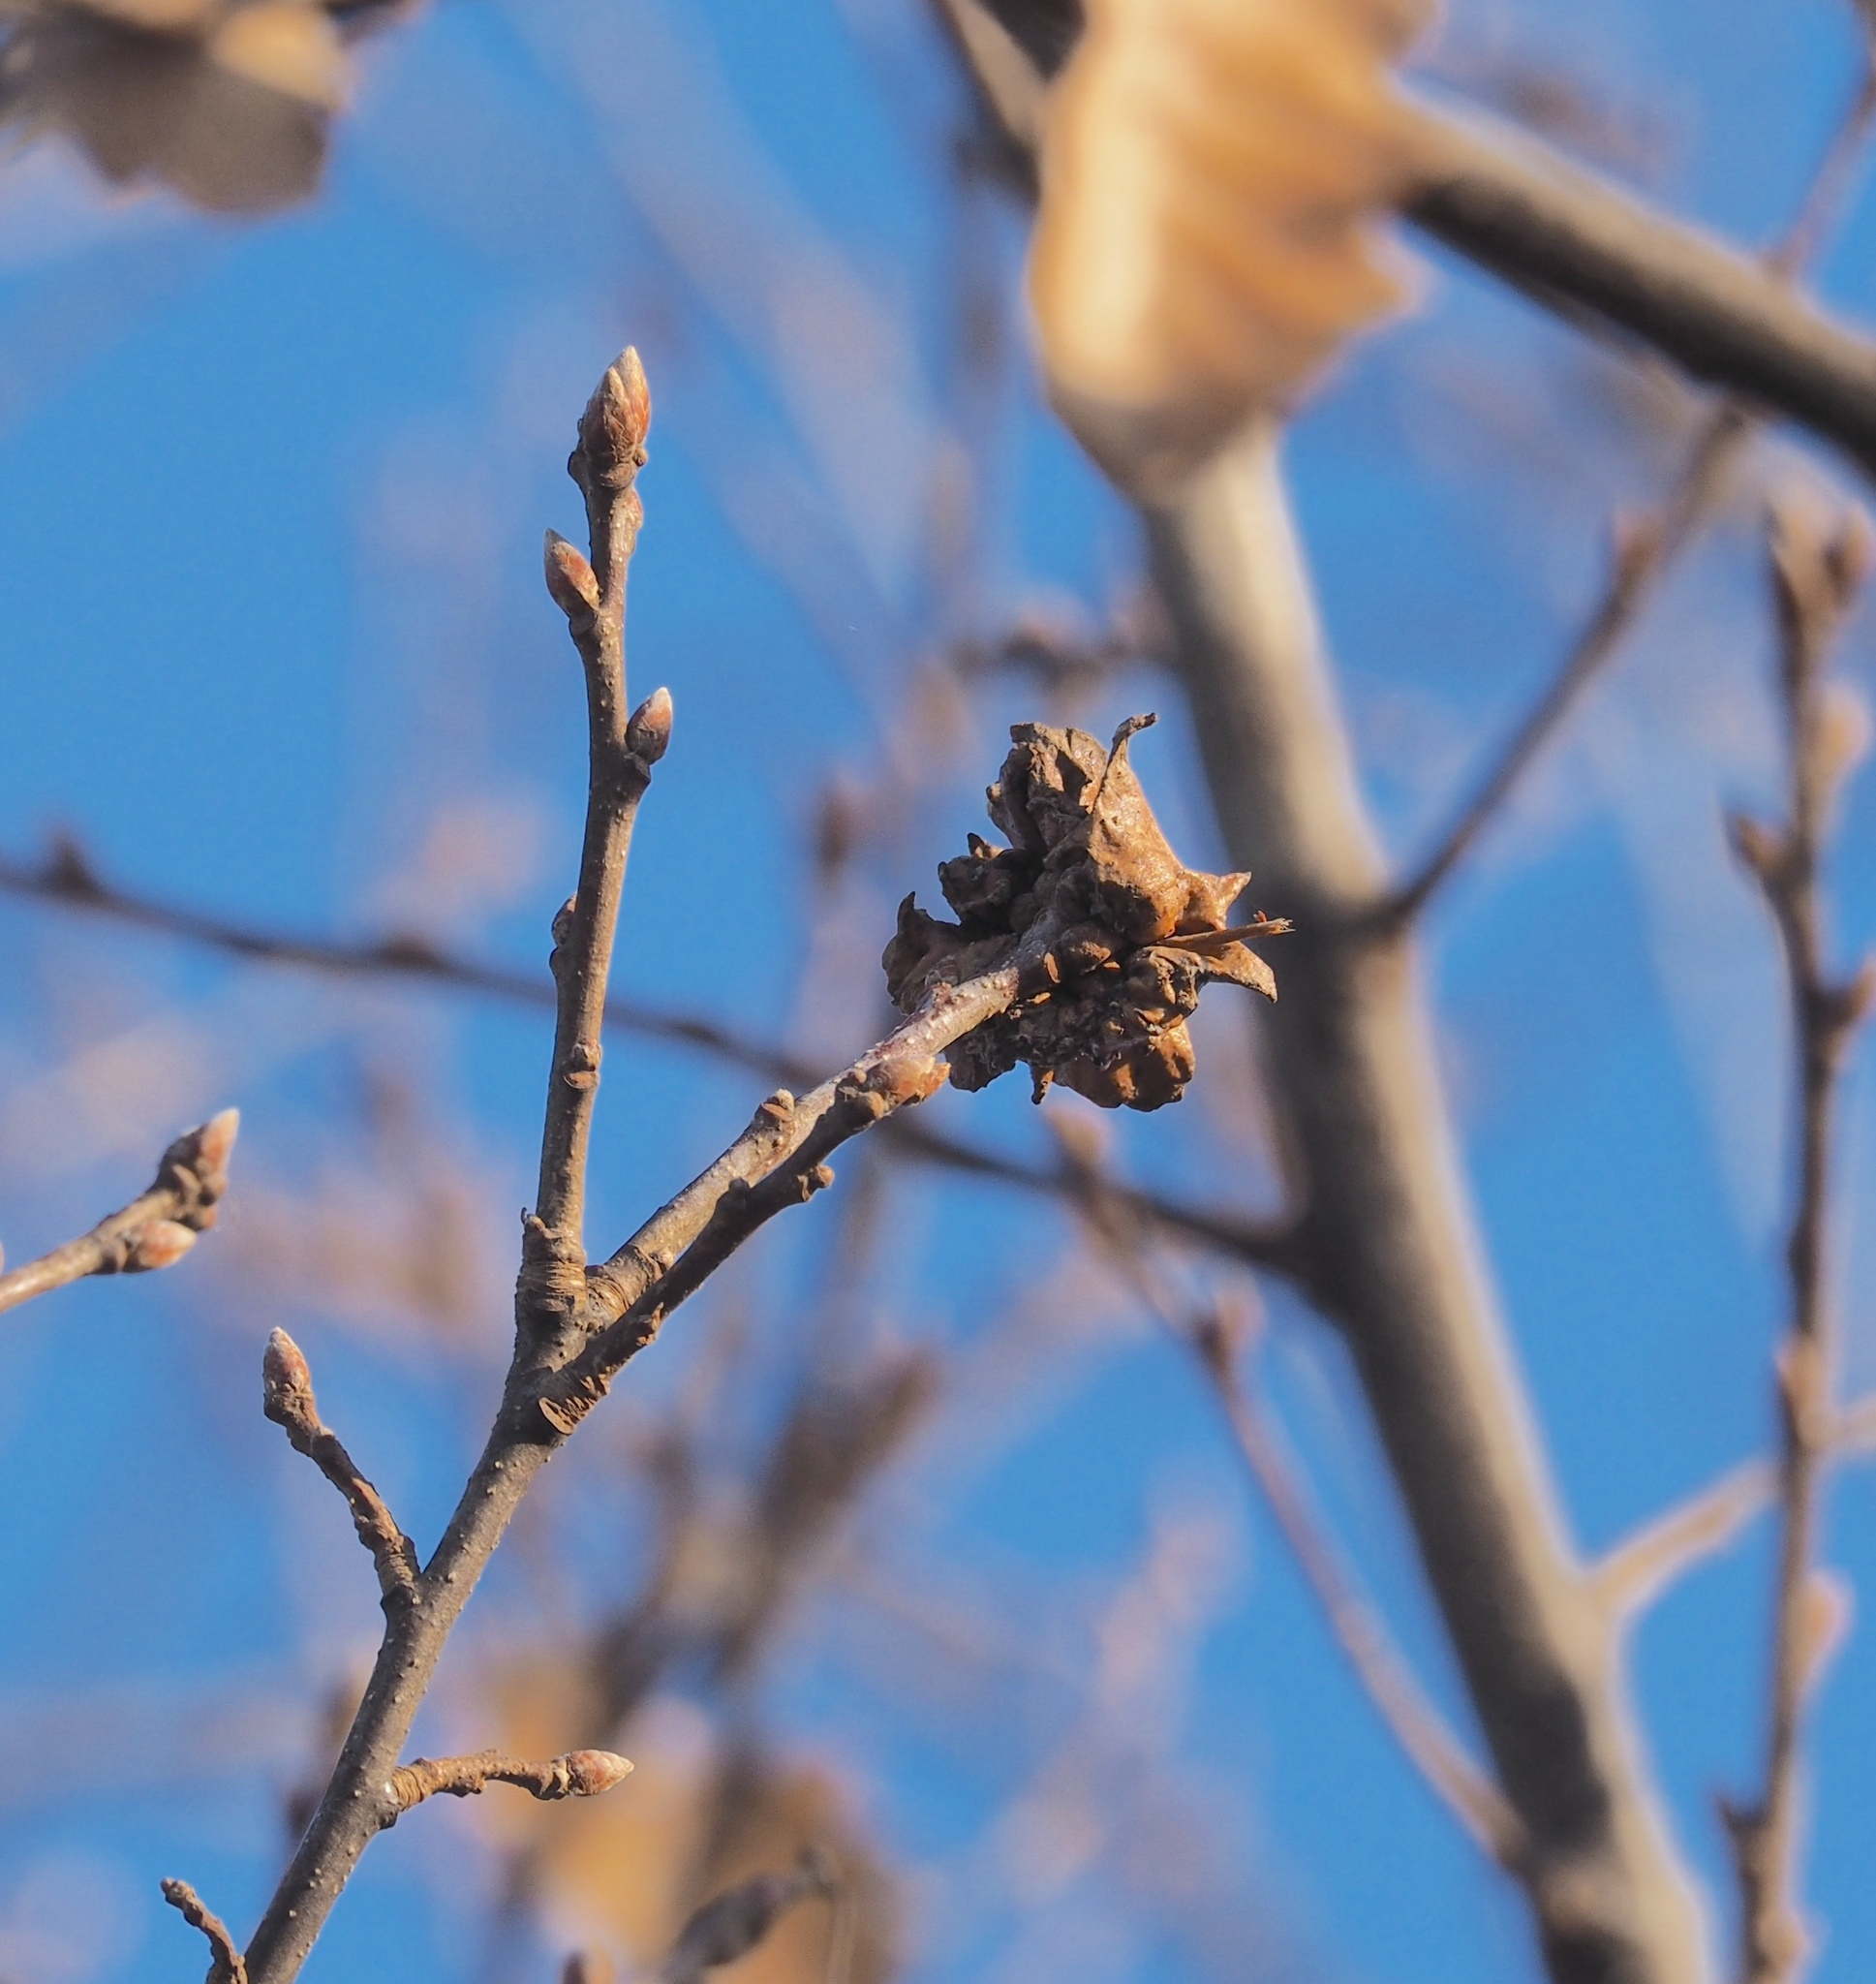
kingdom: Animalia
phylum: Arthropoda
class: Insecta
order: Hymenoptera
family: Cynipidae
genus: Andricus
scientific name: Andricus dentimitratus
